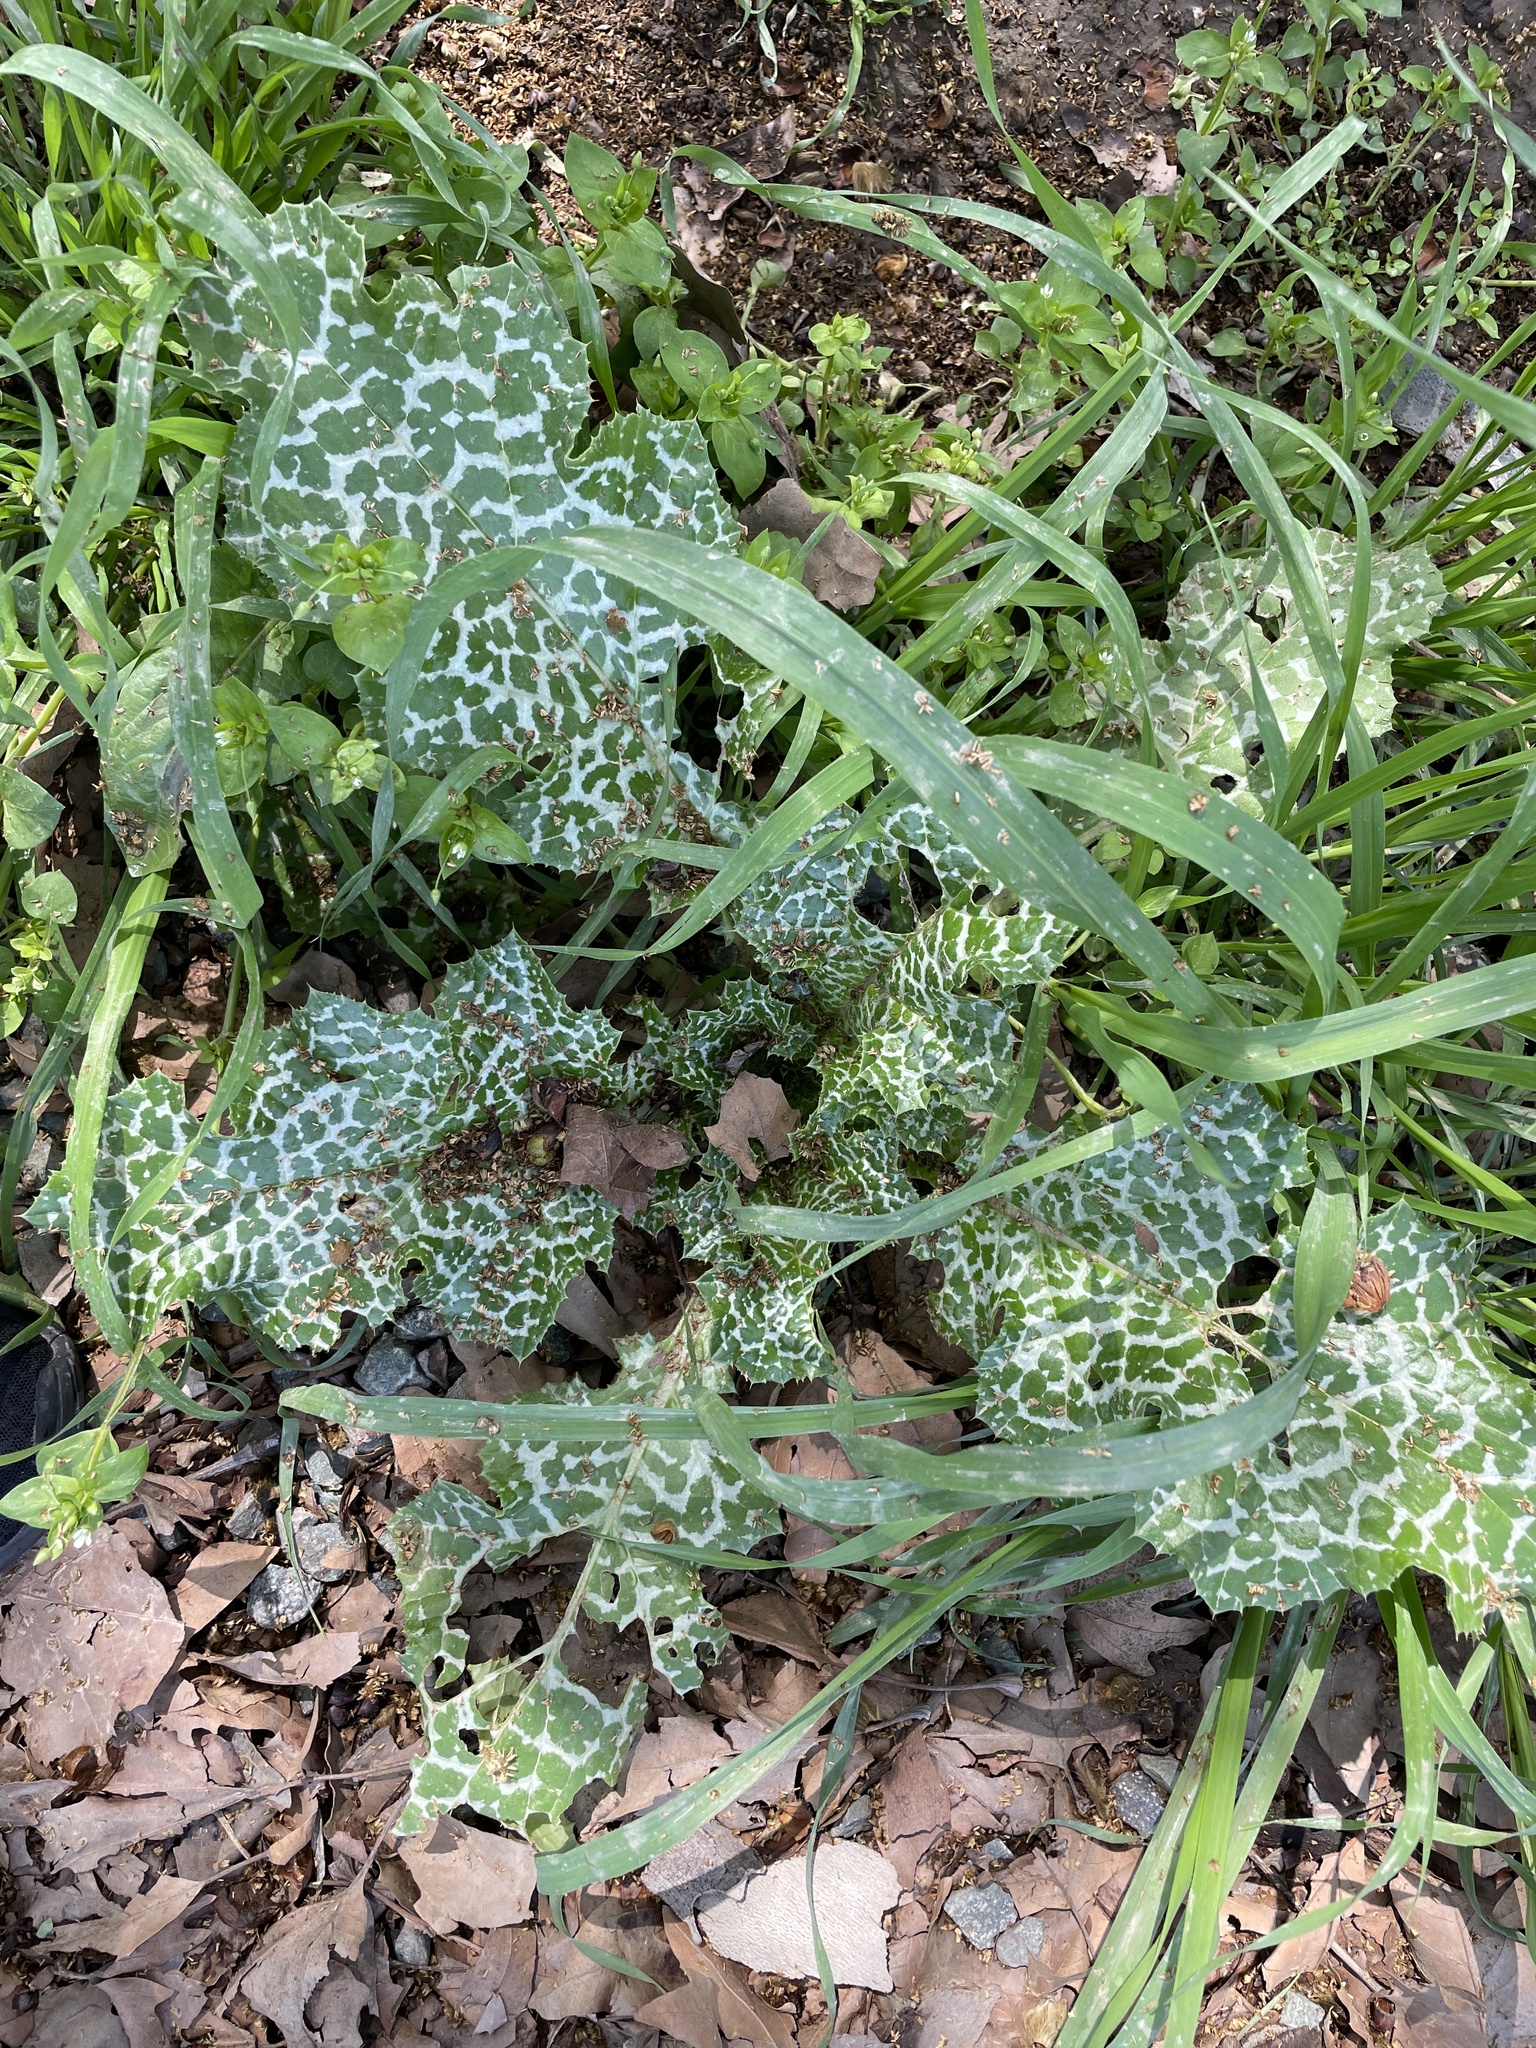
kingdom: Plantae
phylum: Tracheophyta
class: Magnoliopsida
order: Asterales
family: Asteraceae
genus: Silybum
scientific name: Silybum marianum
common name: Milk thistle
